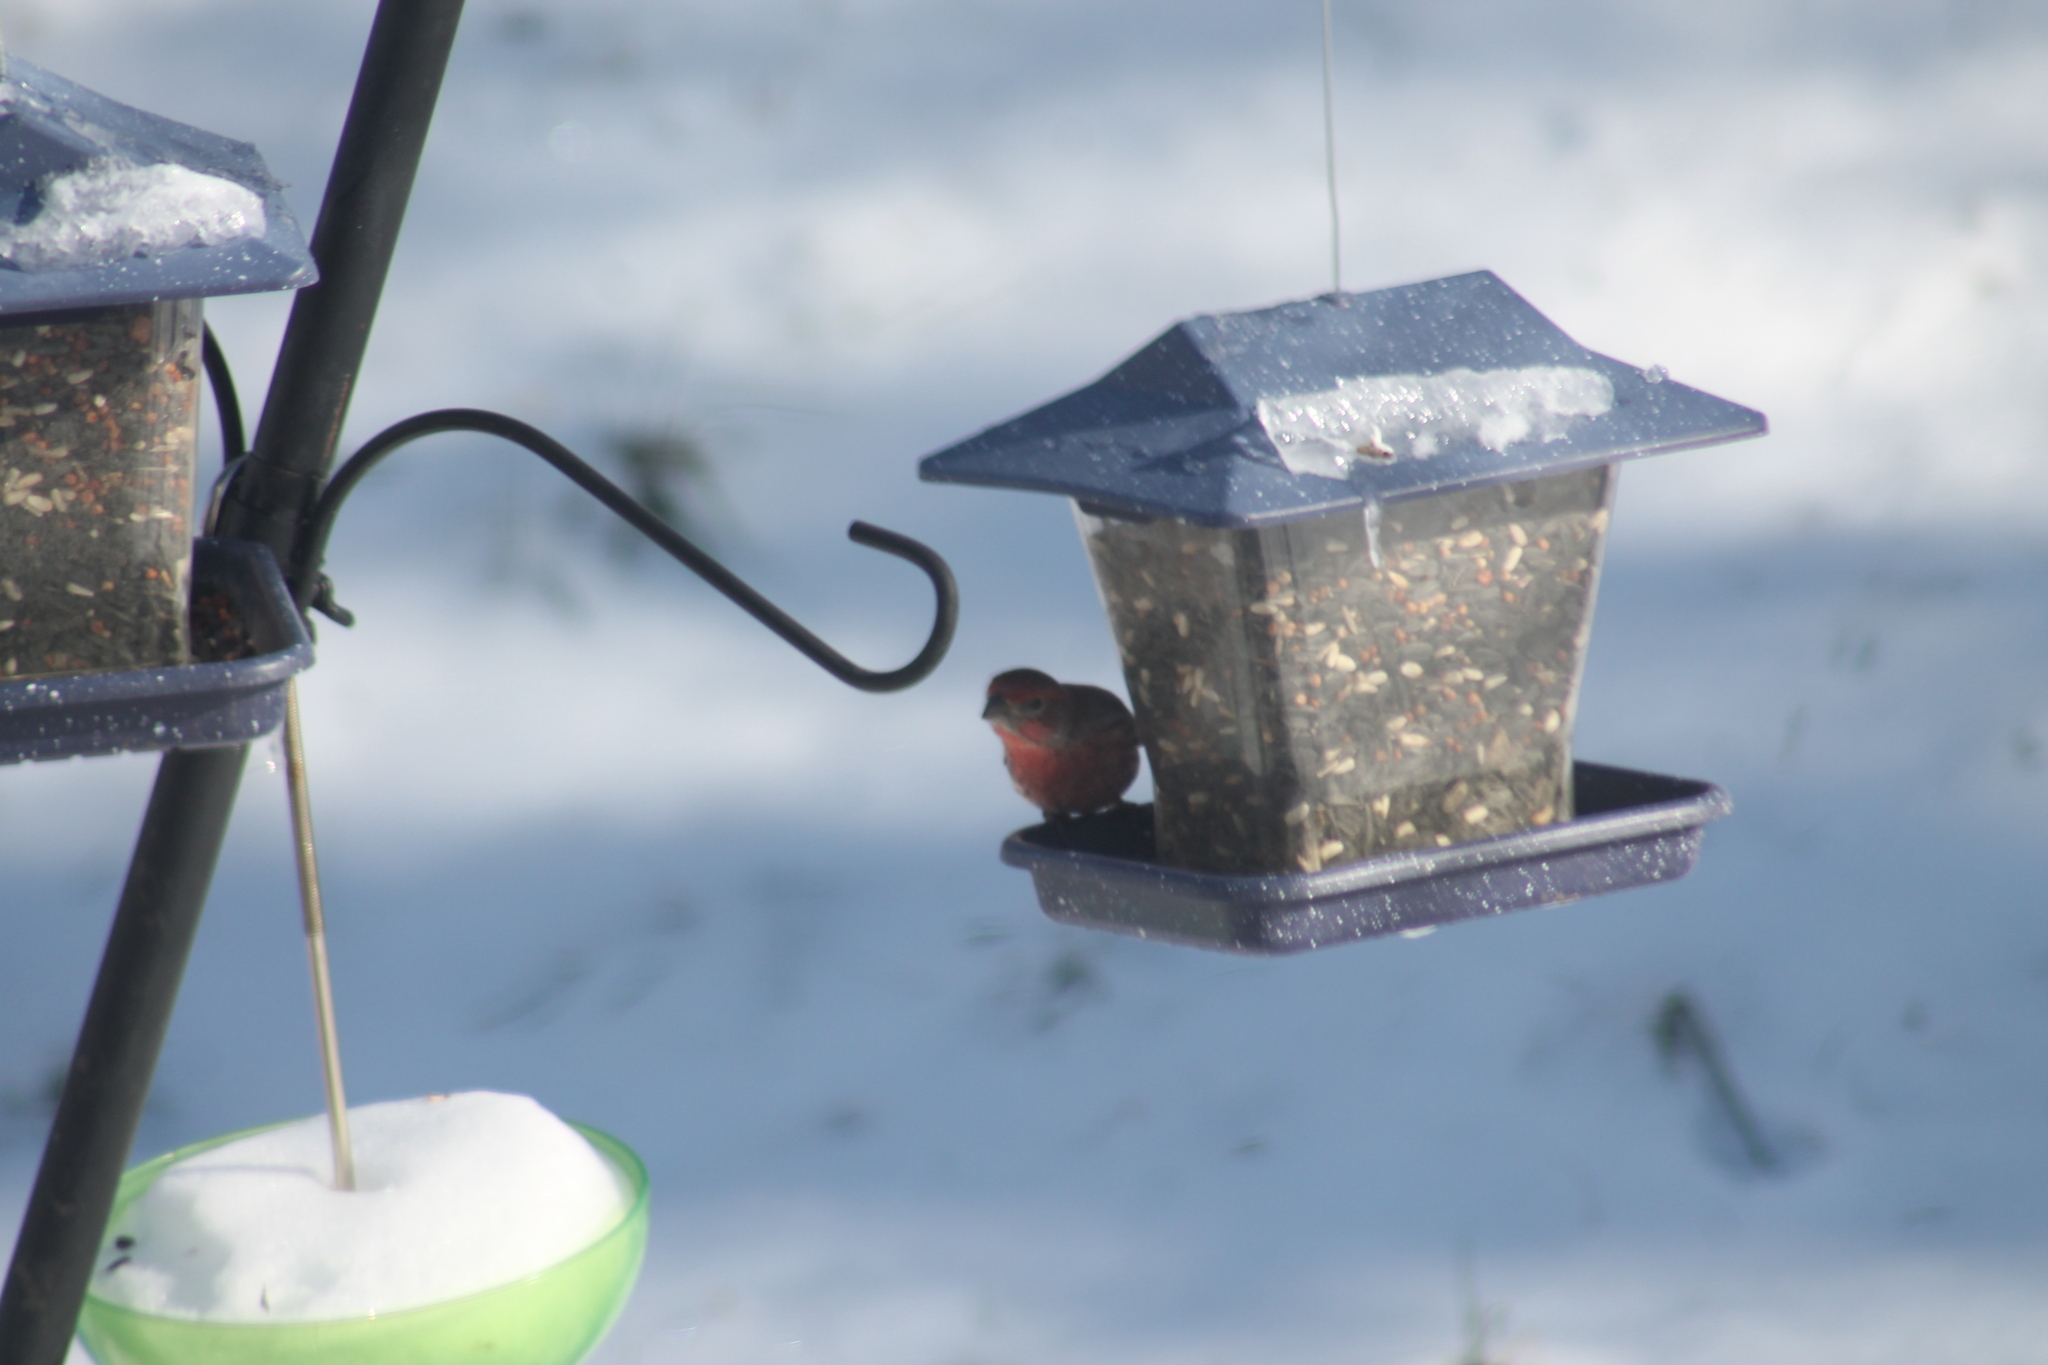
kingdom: Animalia
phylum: Chordata
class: Aves
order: Passeriformes
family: Fringillidae
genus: Haemorhous
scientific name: Haemorhous mexicanus
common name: House finch
